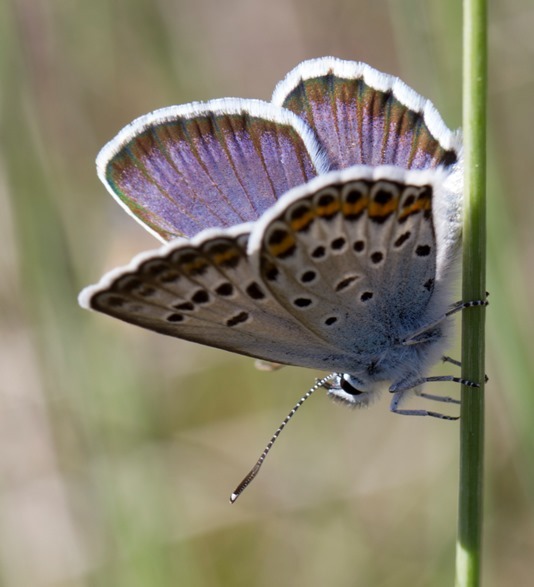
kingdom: Animalia
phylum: Arthropoda
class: Insecta
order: Lepidoptera
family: Lycaenidae
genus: Plebejus
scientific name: Plebejus argus
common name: Silver-studded blue
